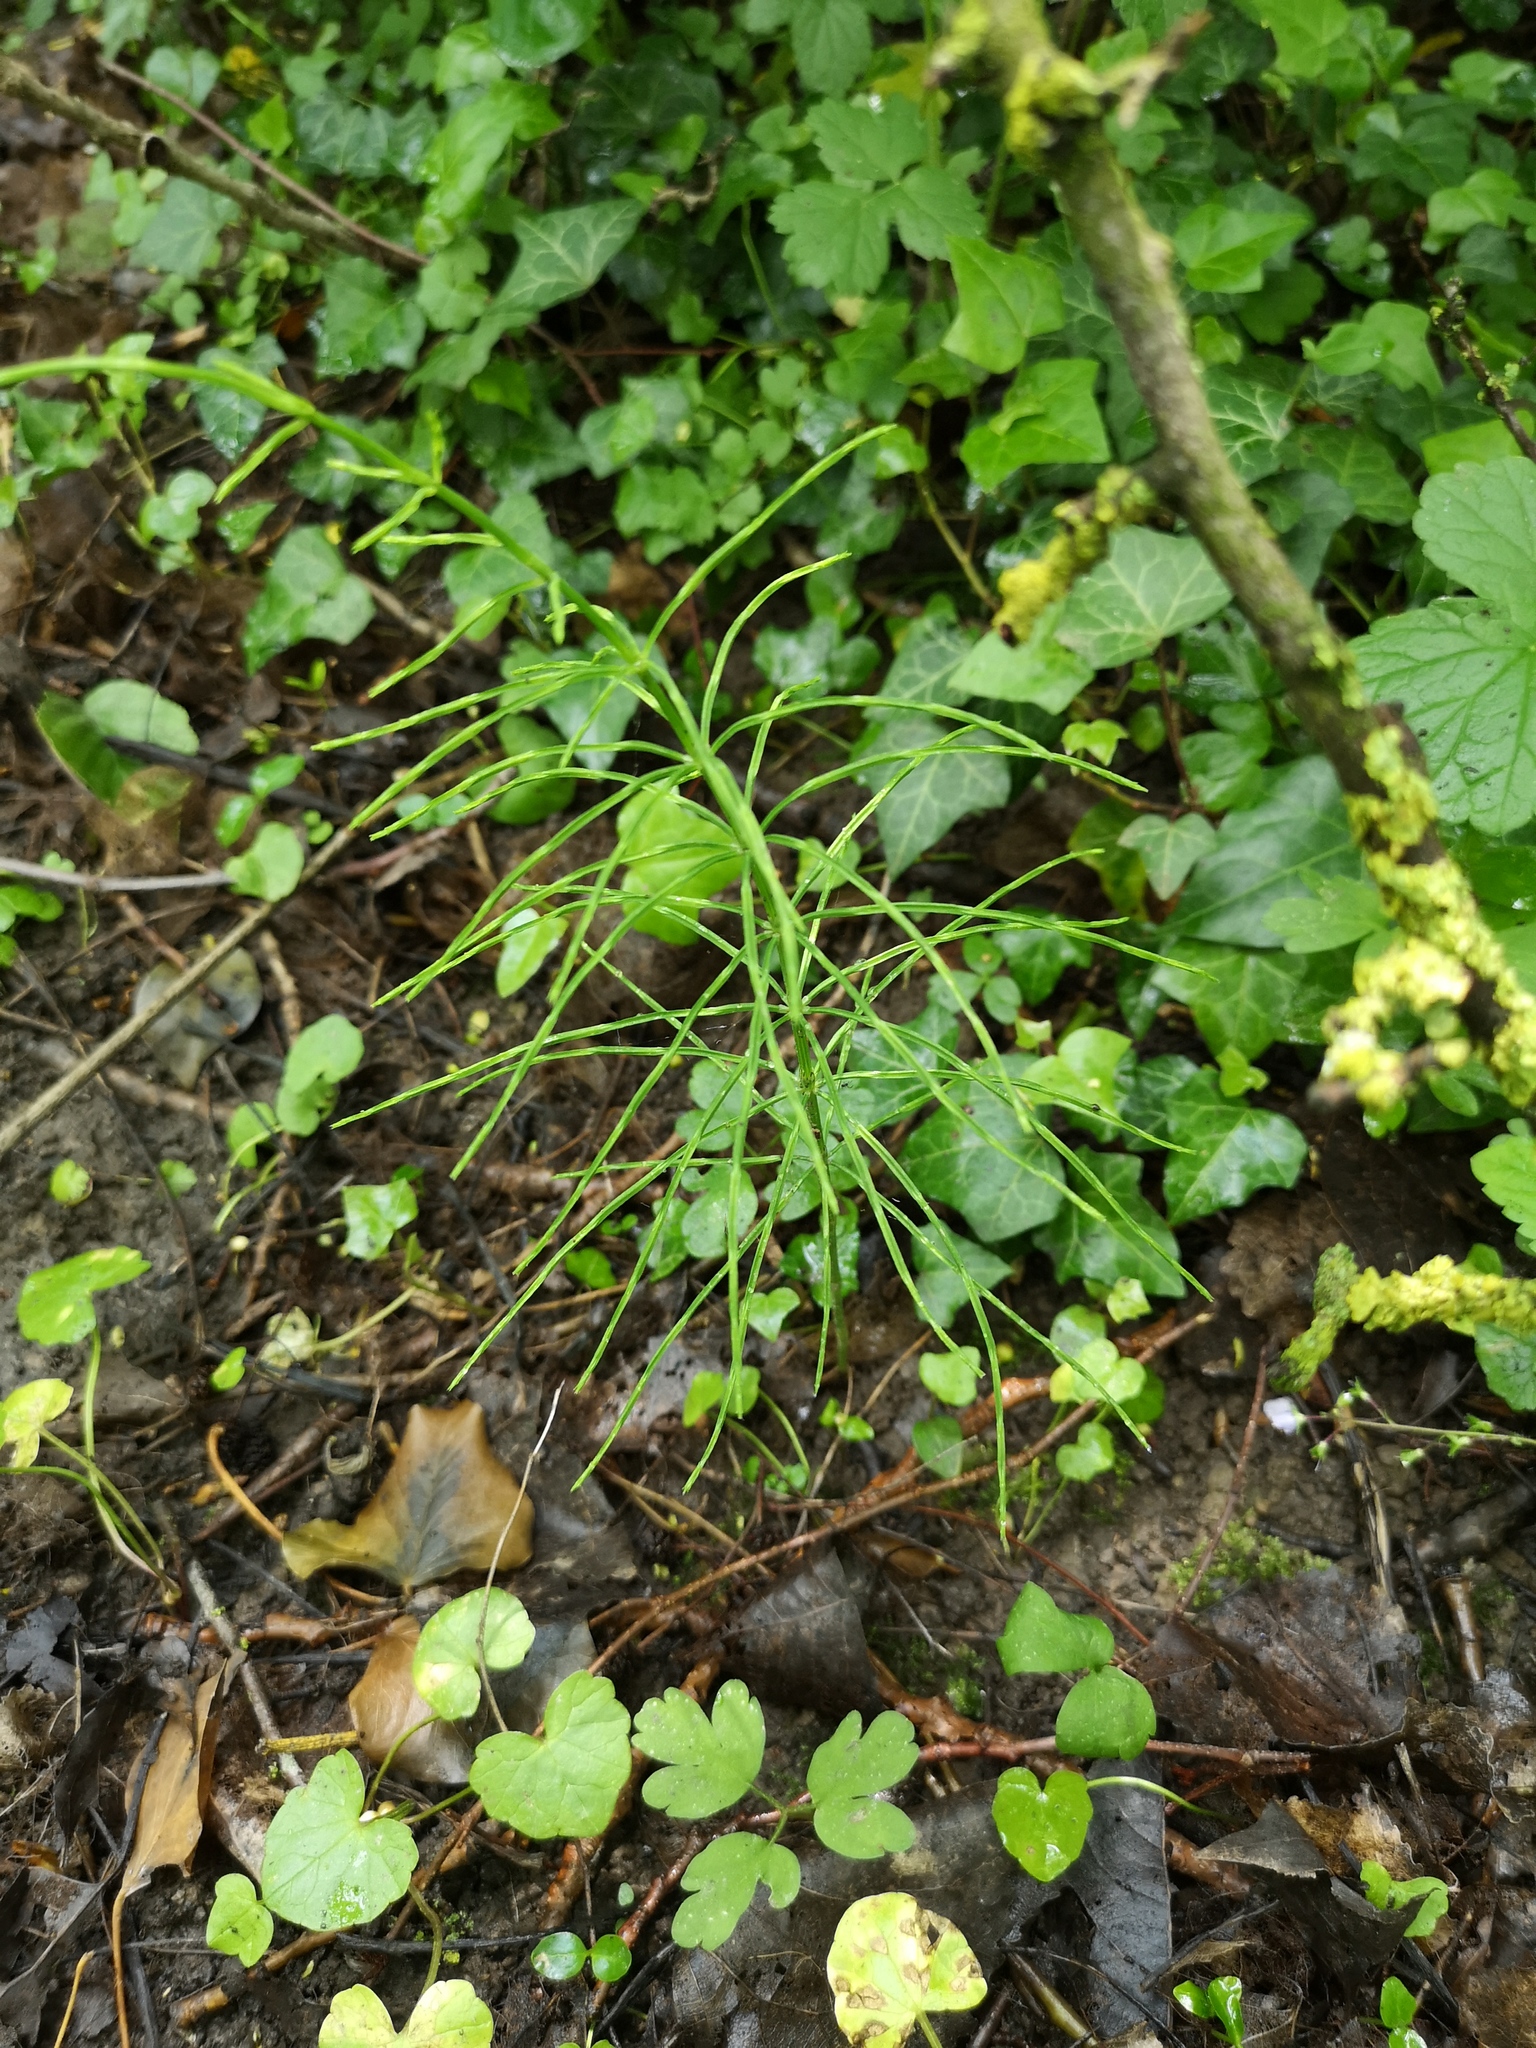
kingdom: Plantae
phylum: Tracheophyta
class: Polypodiopsida
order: Equisetales
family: Equisetaceae
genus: Equisetum
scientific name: Equisetum arvense
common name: Field horsetail
